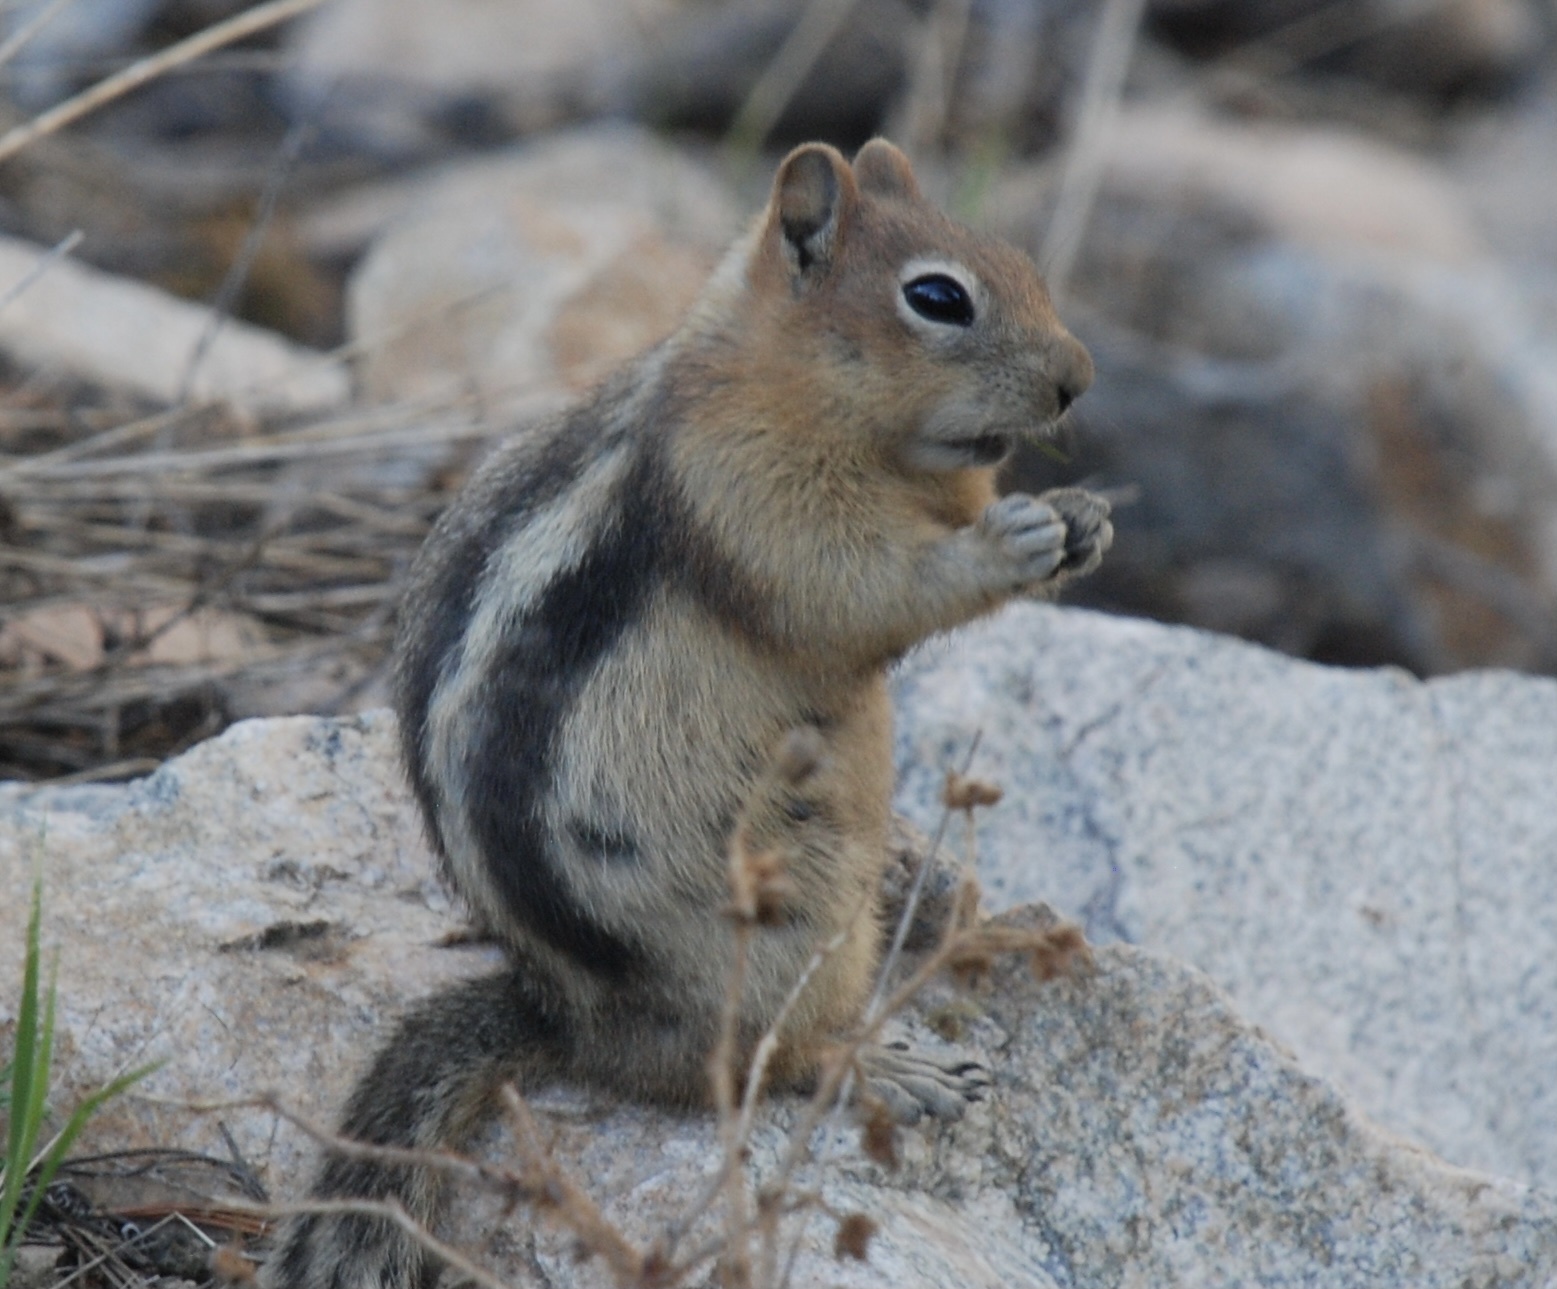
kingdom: Animalia
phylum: Chordata
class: Mammalia
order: Rodentia
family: Sciuridae
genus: Callospermophilus
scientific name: Callospermophilus lateralis
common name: Golden-mantled ground squirrel
